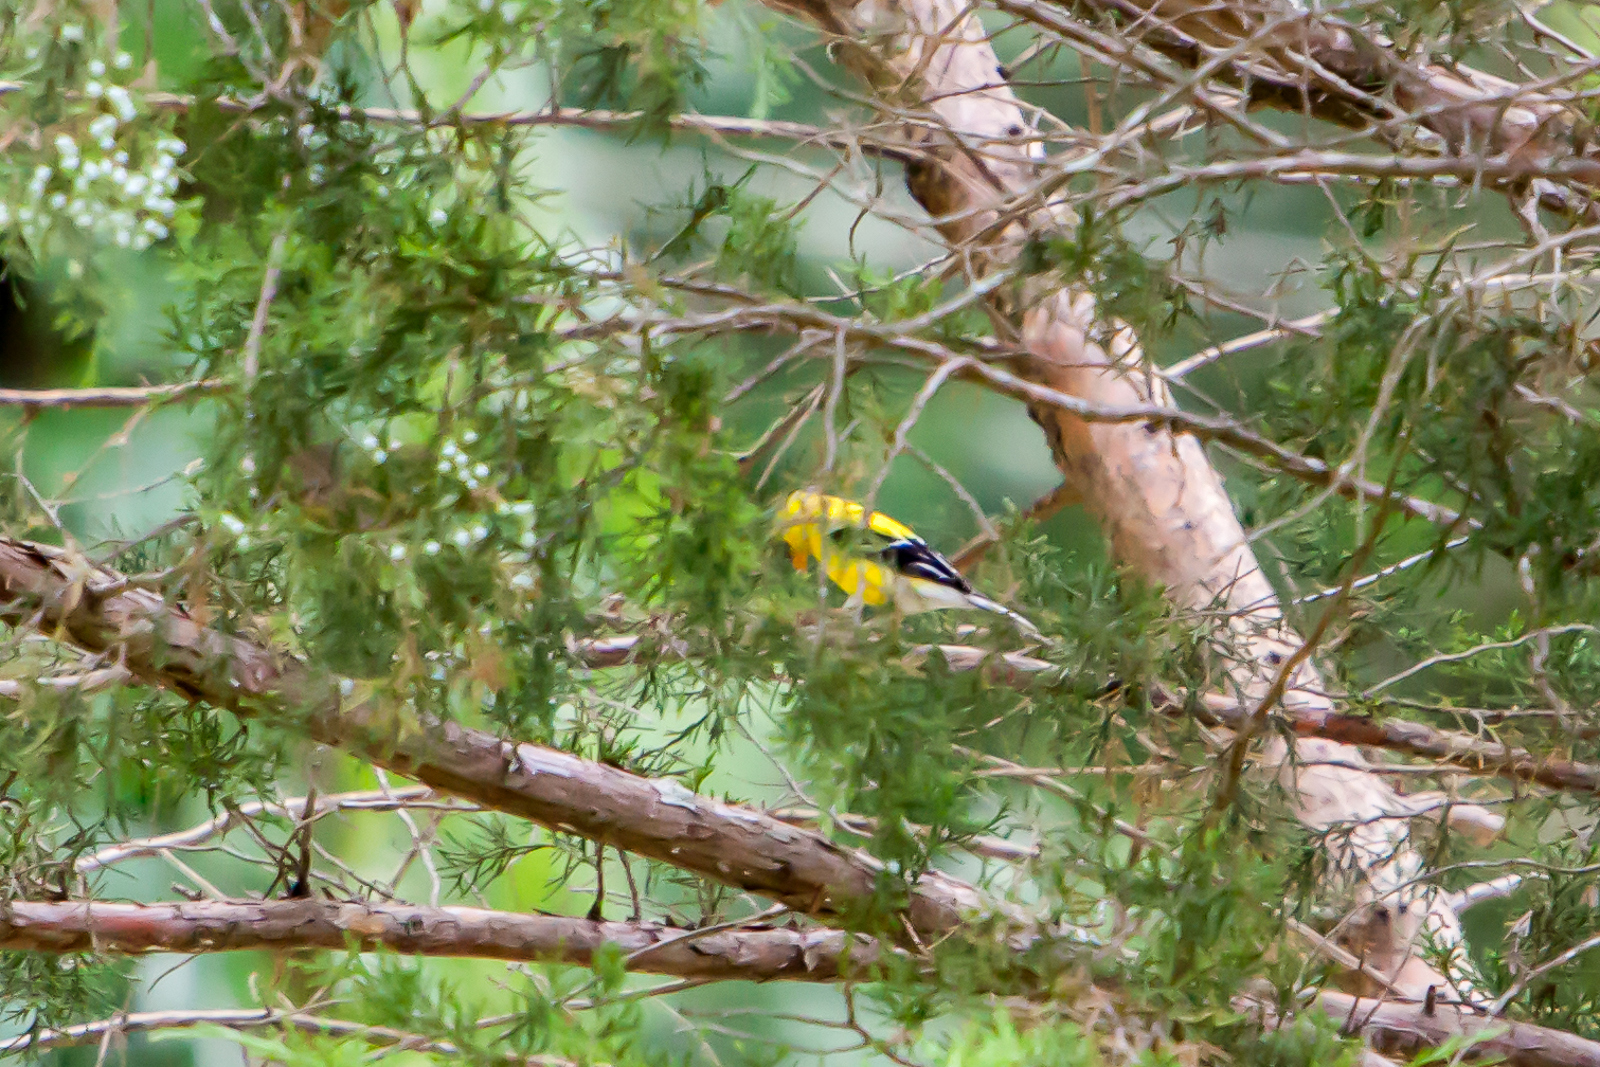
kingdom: Animalia
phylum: Chordata
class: Aves
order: Passeriformes
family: Fringillidae
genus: Spinus
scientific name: Spinus tristis
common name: American goldfinch
